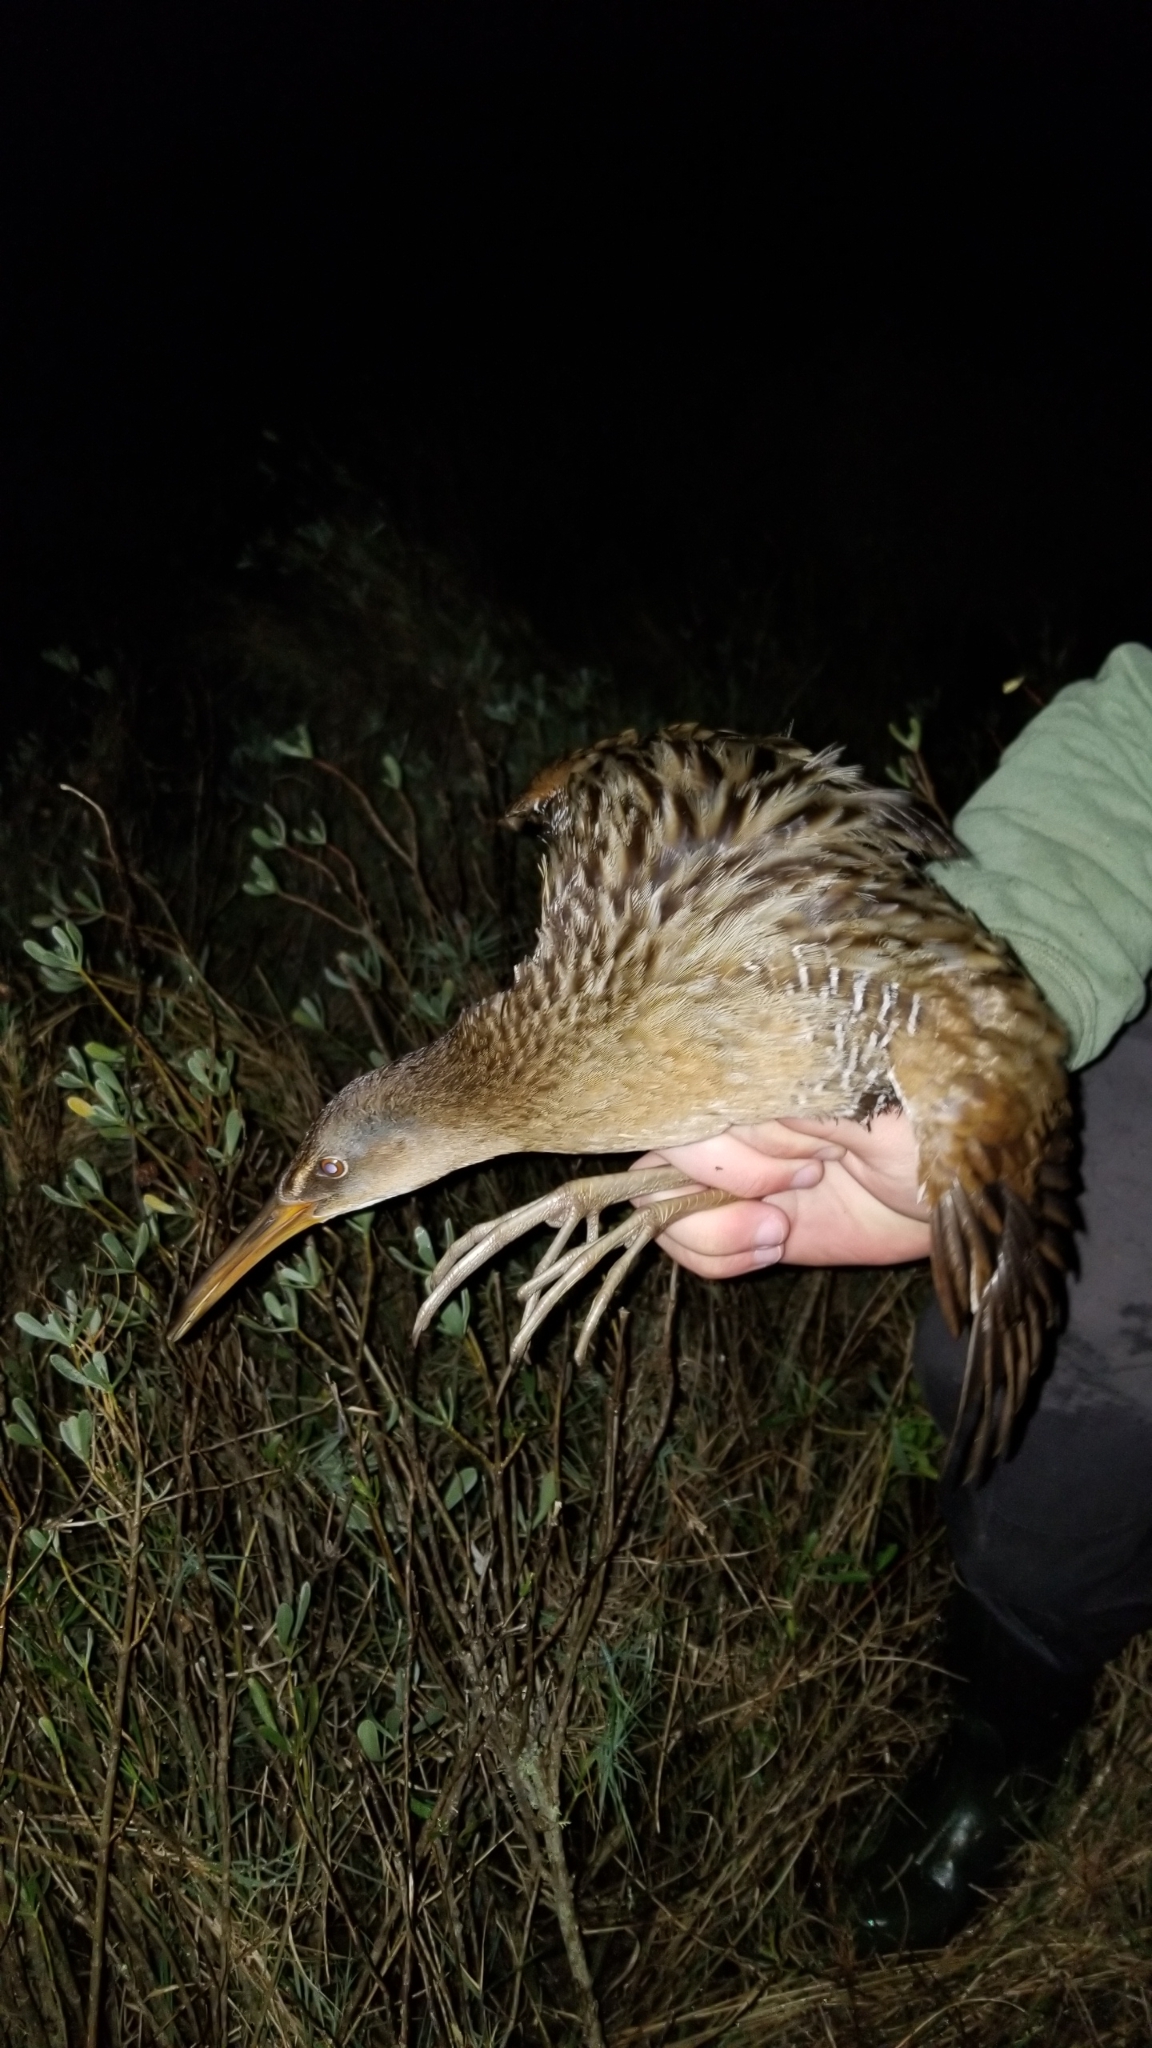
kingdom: Animalia
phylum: Chordata
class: Aves
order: Gruiformes
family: Rallidae
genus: Rallus
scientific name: Rallus crepitans
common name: Clapper rail
